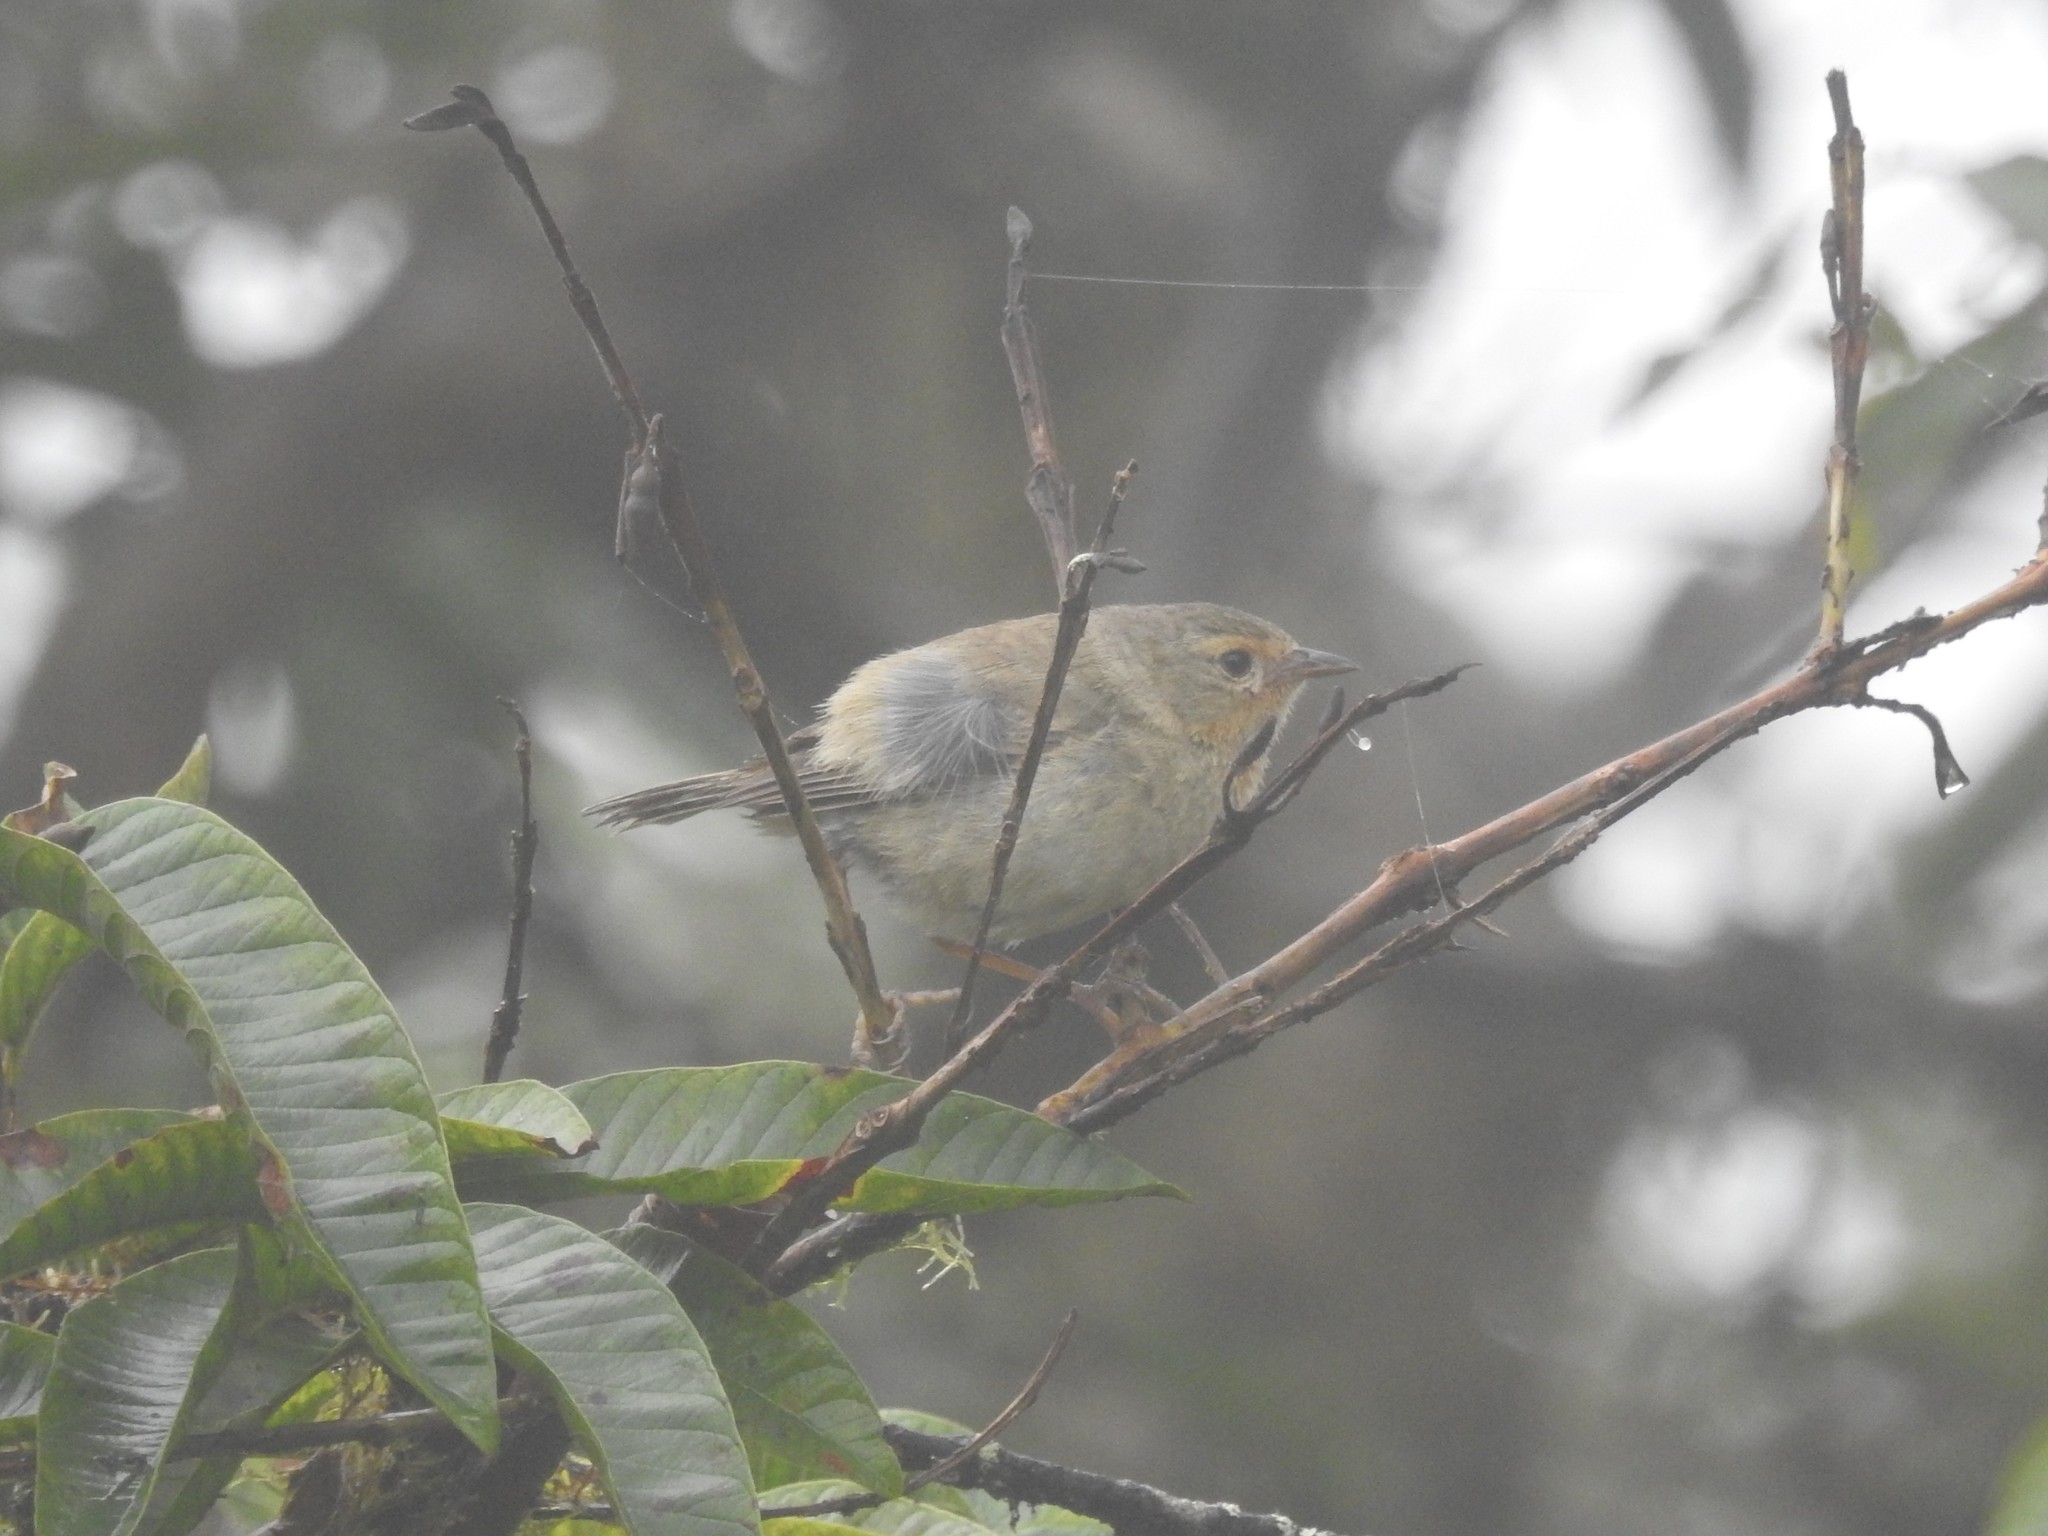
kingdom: Animalia
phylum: Chordata
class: Aves
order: Passeriformes
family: Thraupidae
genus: Certhidea
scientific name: Certhidea olivacea
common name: Green warbler-finch
